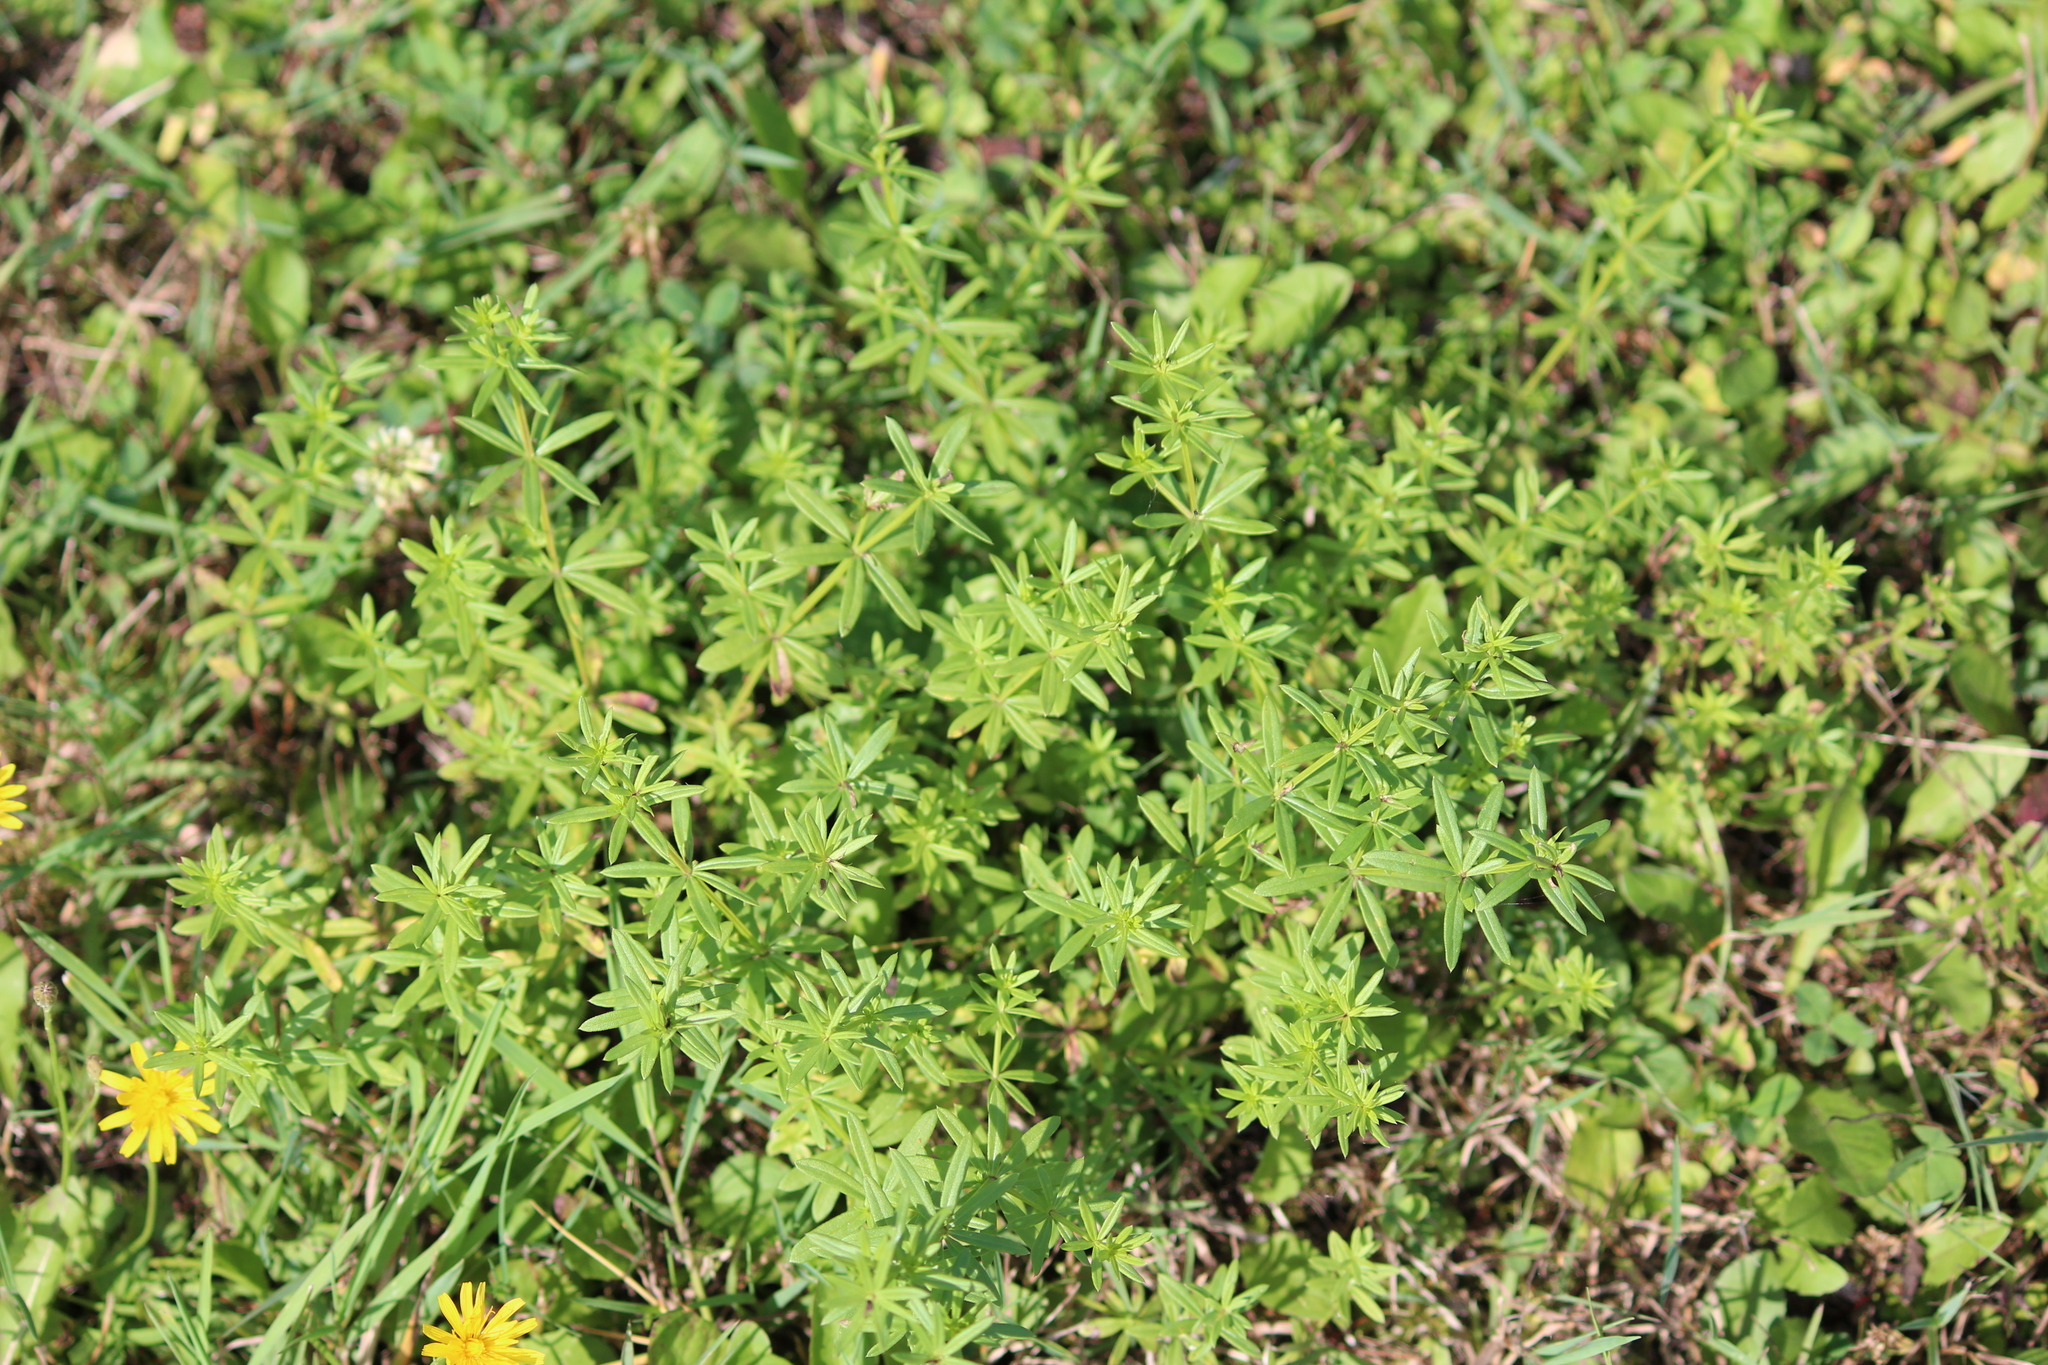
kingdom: Plantae
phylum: Tracheophyta
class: Magnoliopsida
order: Gentianales
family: Rubiaceae
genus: Galium
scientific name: Galium mollugo
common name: Hedge bedstraw
